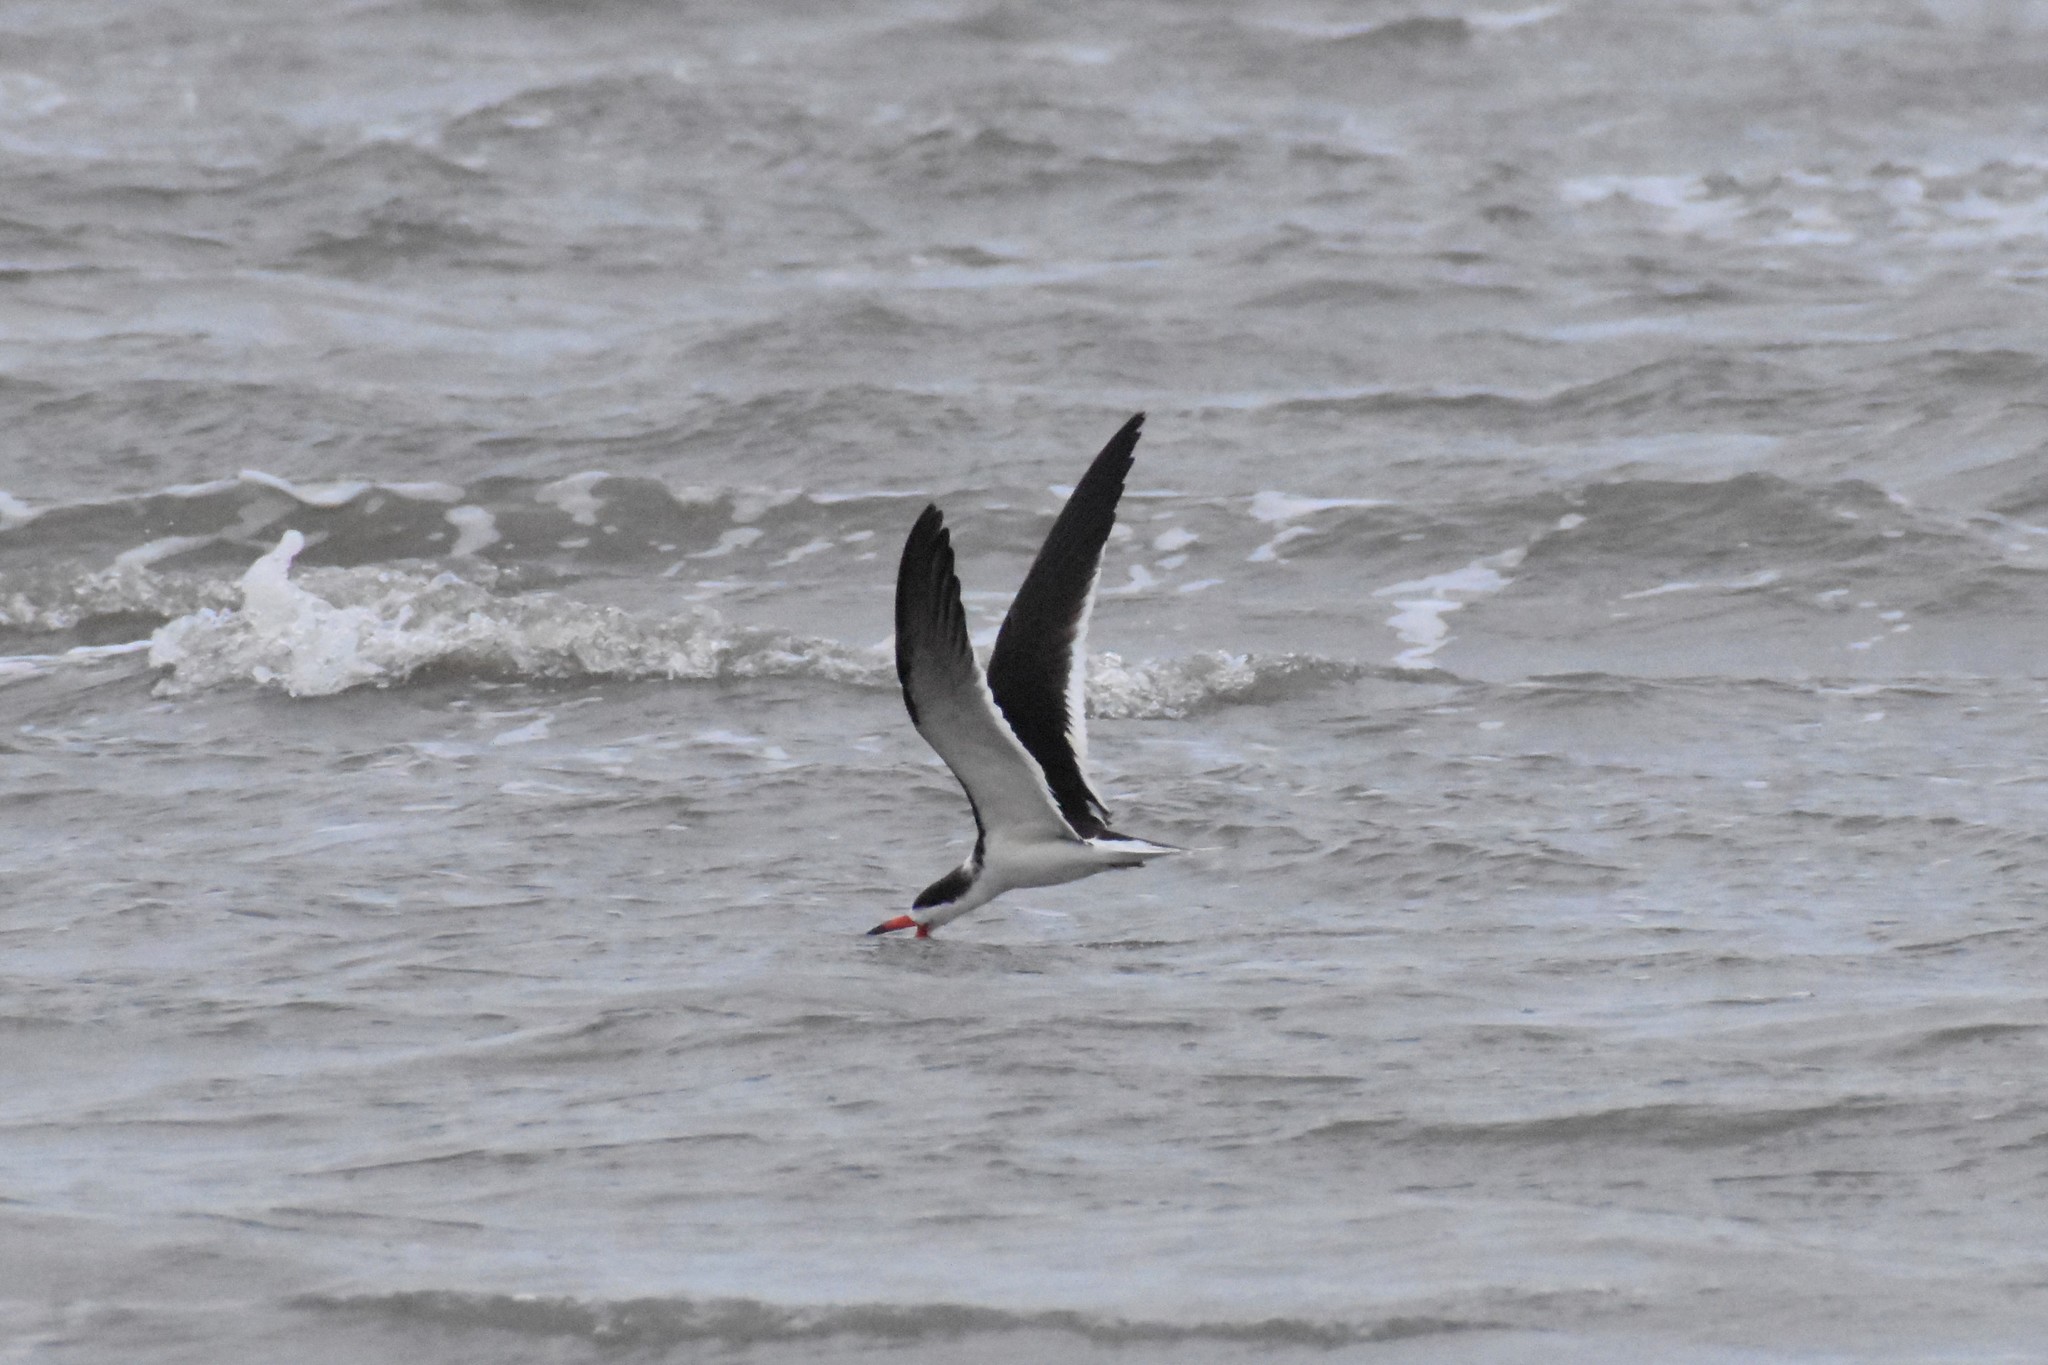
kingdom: Animalia
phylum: Chordata
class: Aves
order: Charadriiformes
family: Laridae
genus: Rynchops
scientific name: Rynchops niger
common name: Black skimmer
